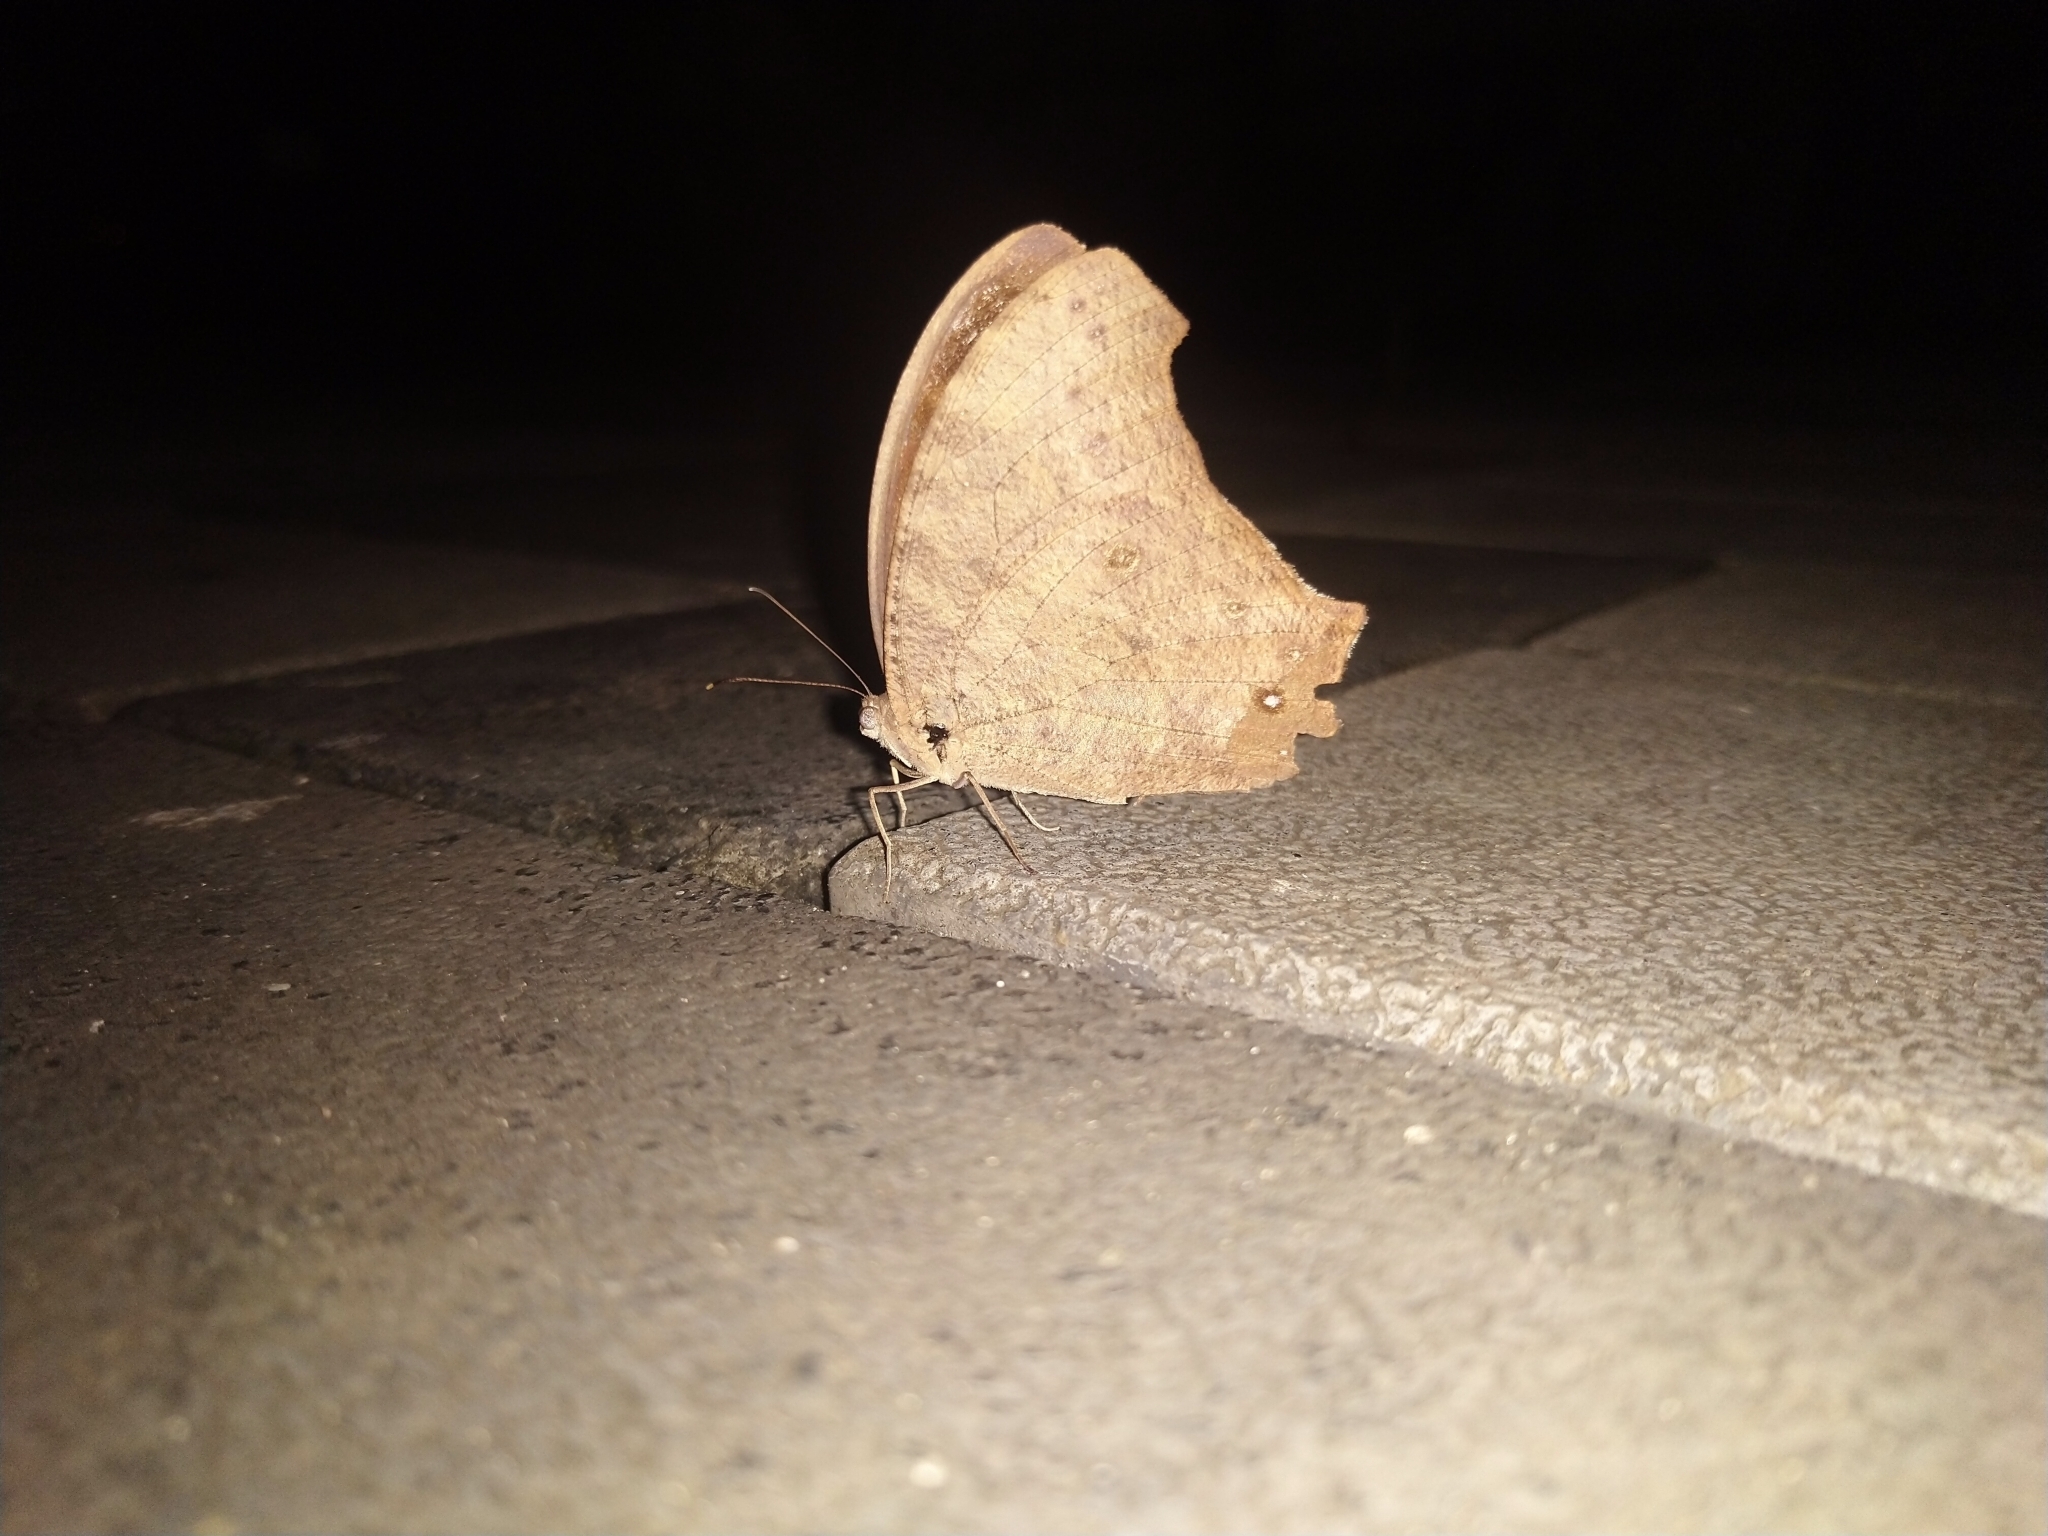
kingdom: Animalia
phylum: Arthropoda
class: Insecta
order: Lepidoptera
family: Nymphalidae
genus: Melanitis
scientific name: Melanitis leda
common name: Twilight brown
